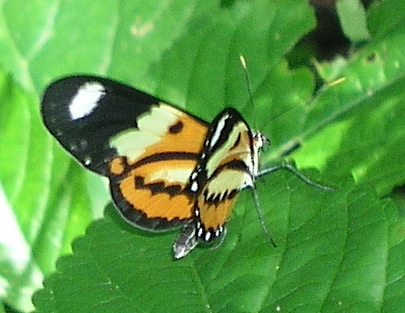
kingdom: Animalia
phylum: Arthropoda
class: Insecta
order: Lepidoptera
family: Nymphalidae
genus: Mechanitis
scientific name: Mechanitis lysimnia
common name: Lysimnia tigerwing
